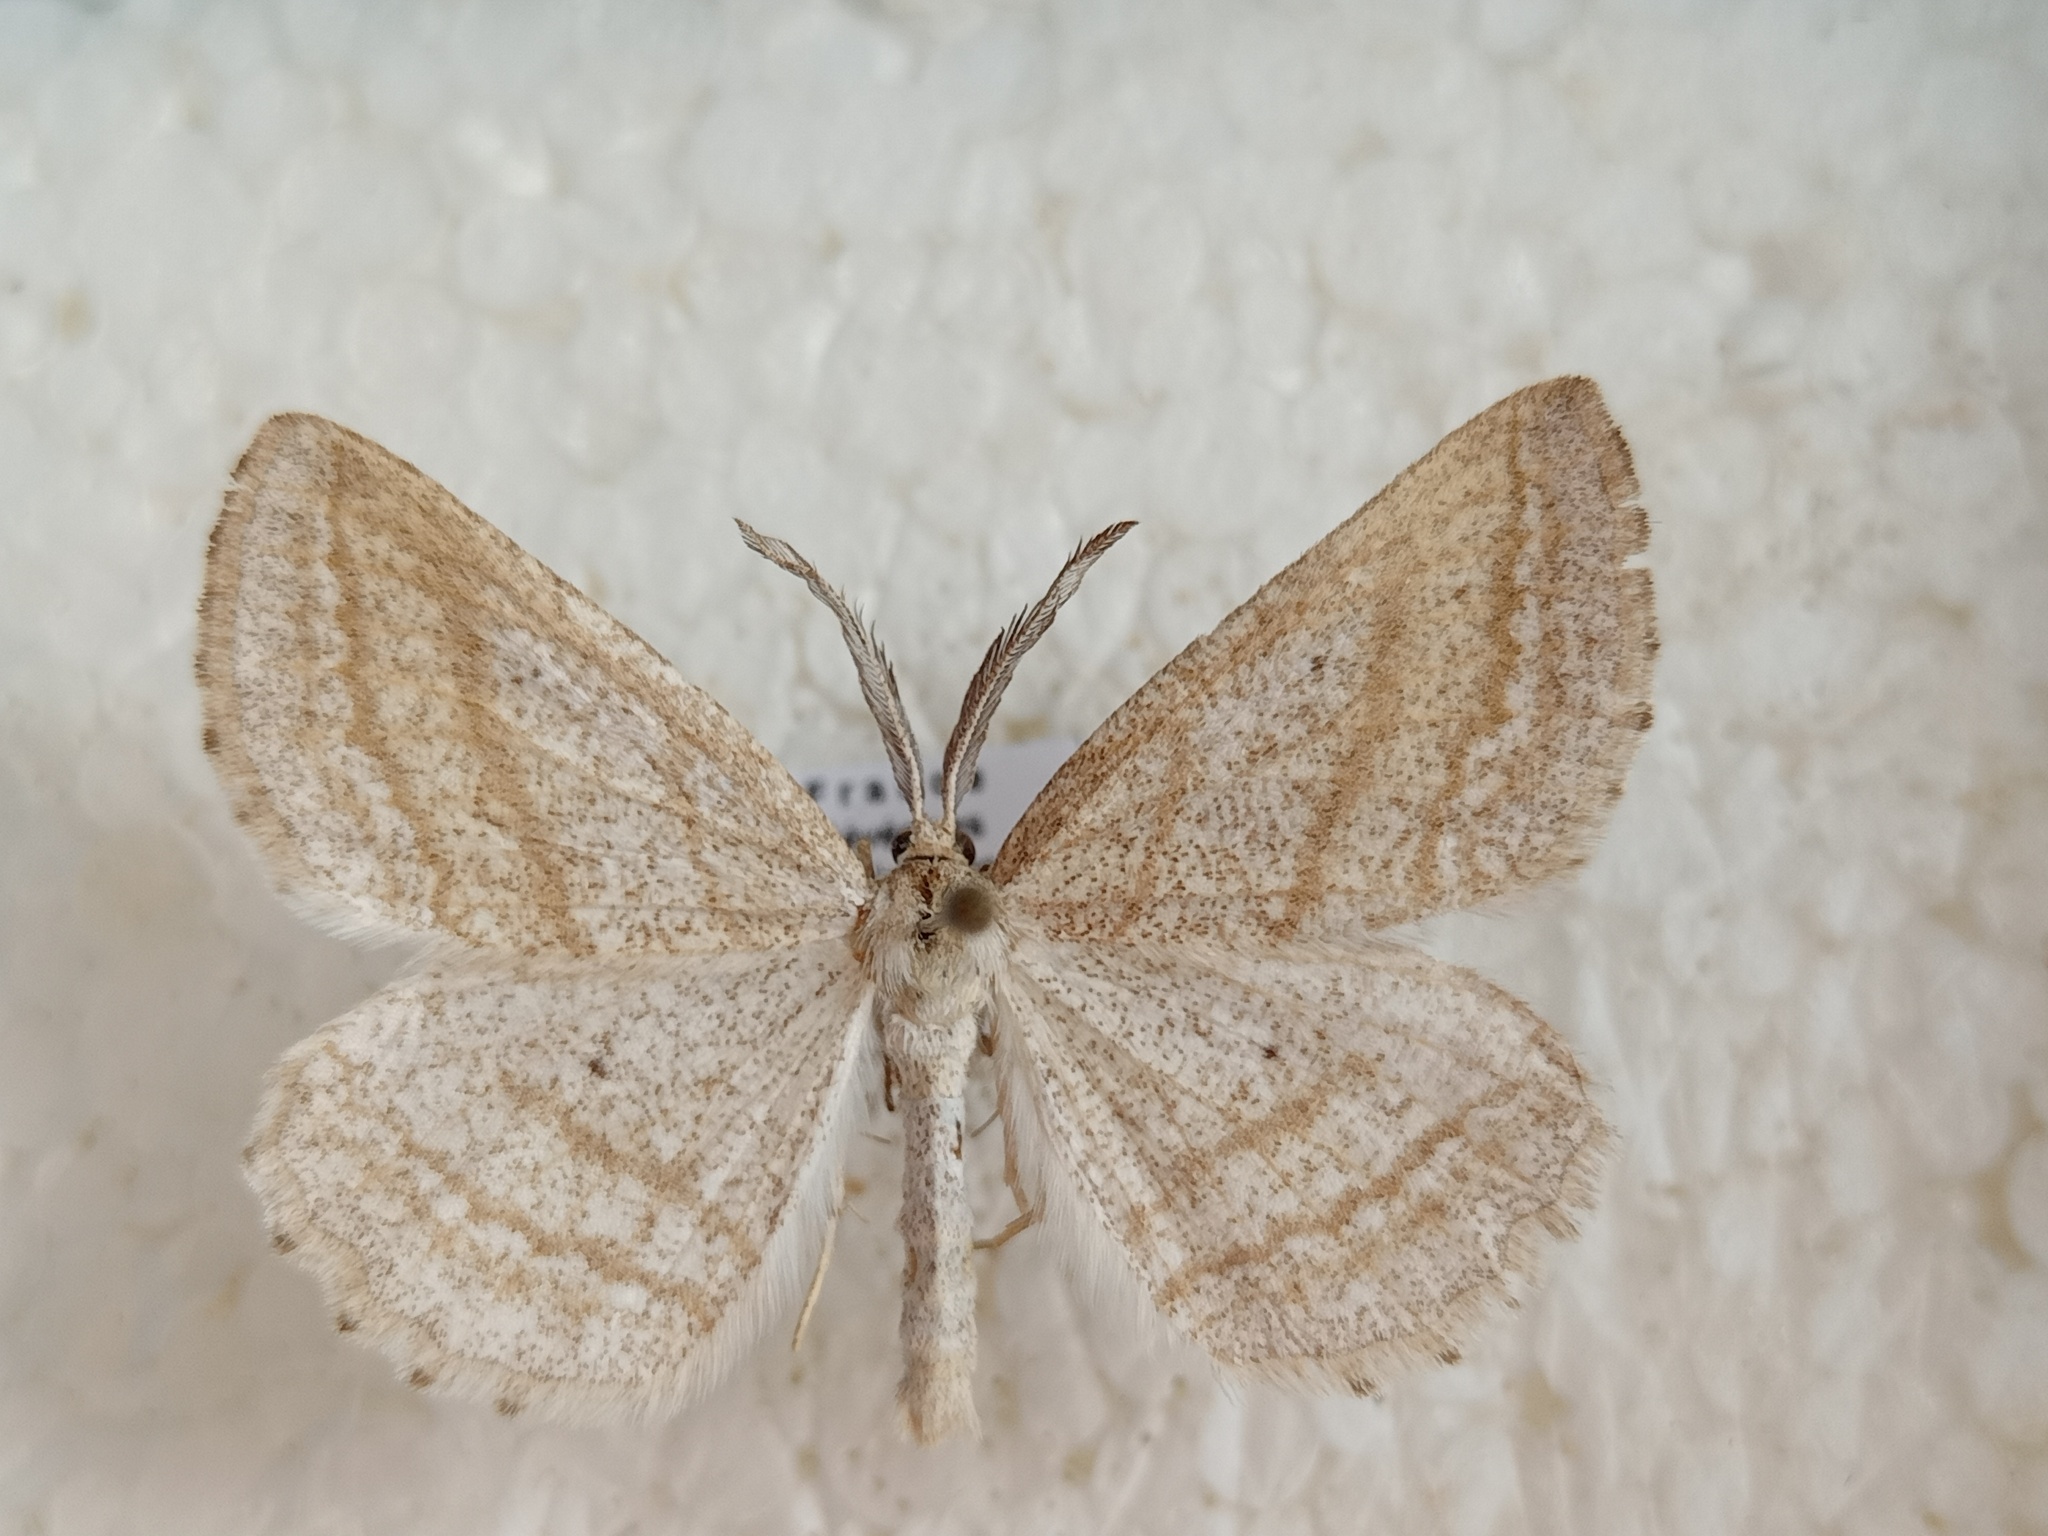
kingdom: Animalia
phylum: Arthropoda
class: Insecta
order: Lepidoptera
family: Geometridae
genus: Perconia
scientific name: Perconia strigillaria
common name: Grass wave
